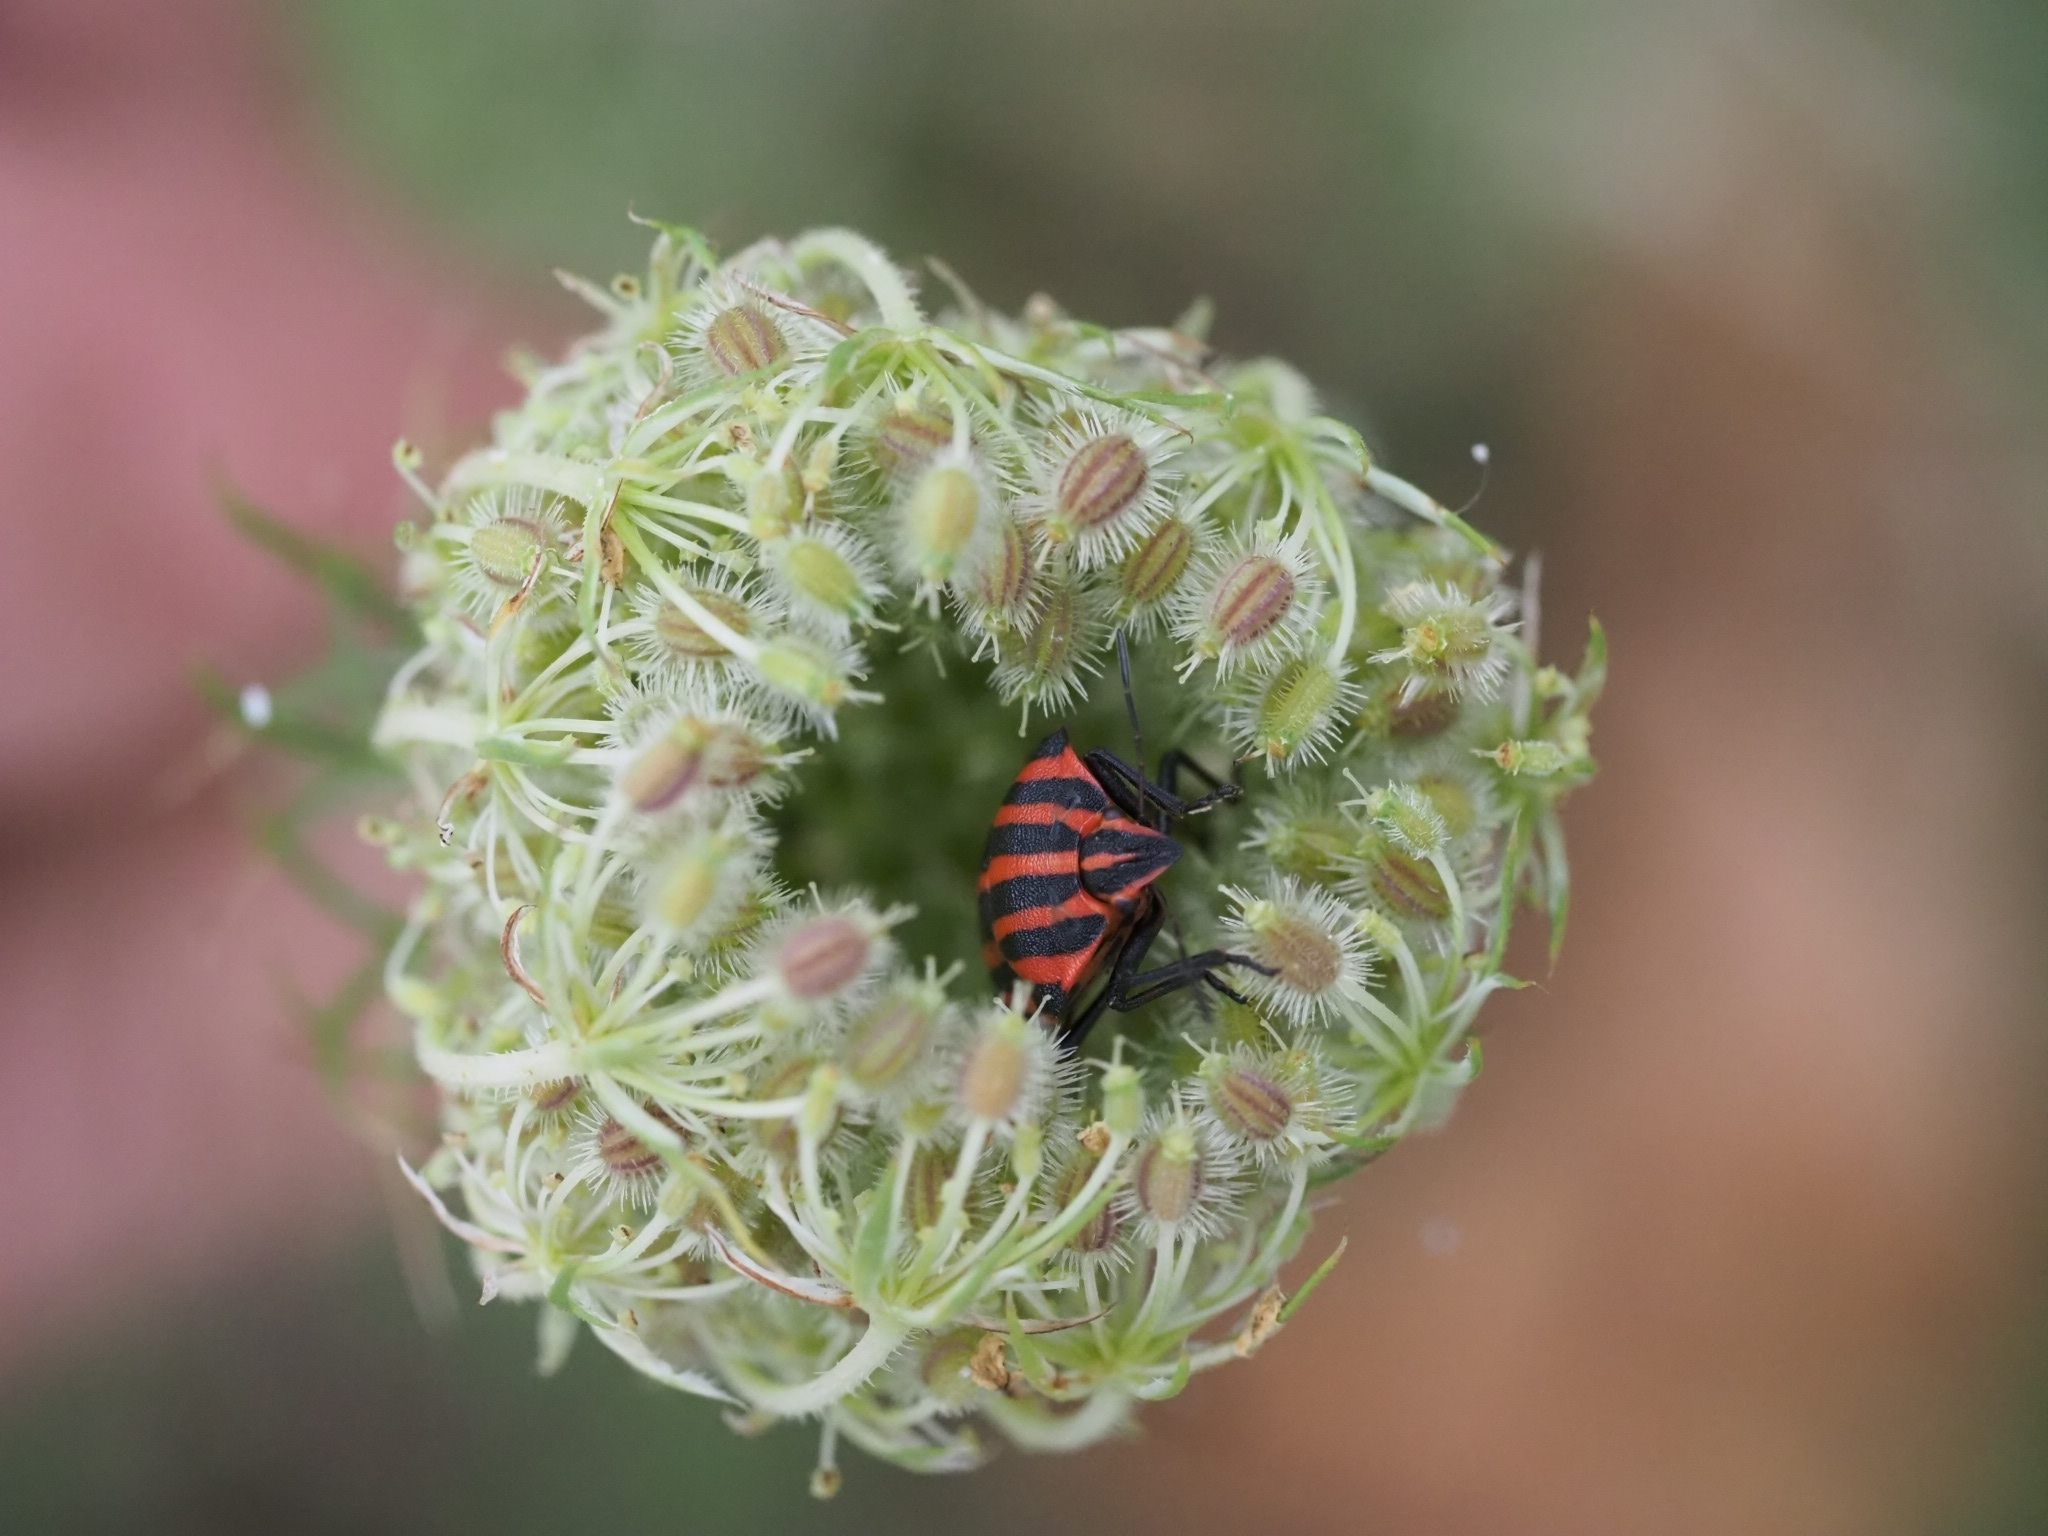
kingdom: Animalia
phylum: Arthropoda
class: Insecta
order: Hemiptera
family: Pentatomidae
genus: Graphosoma
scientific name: Graphosoma italicum
